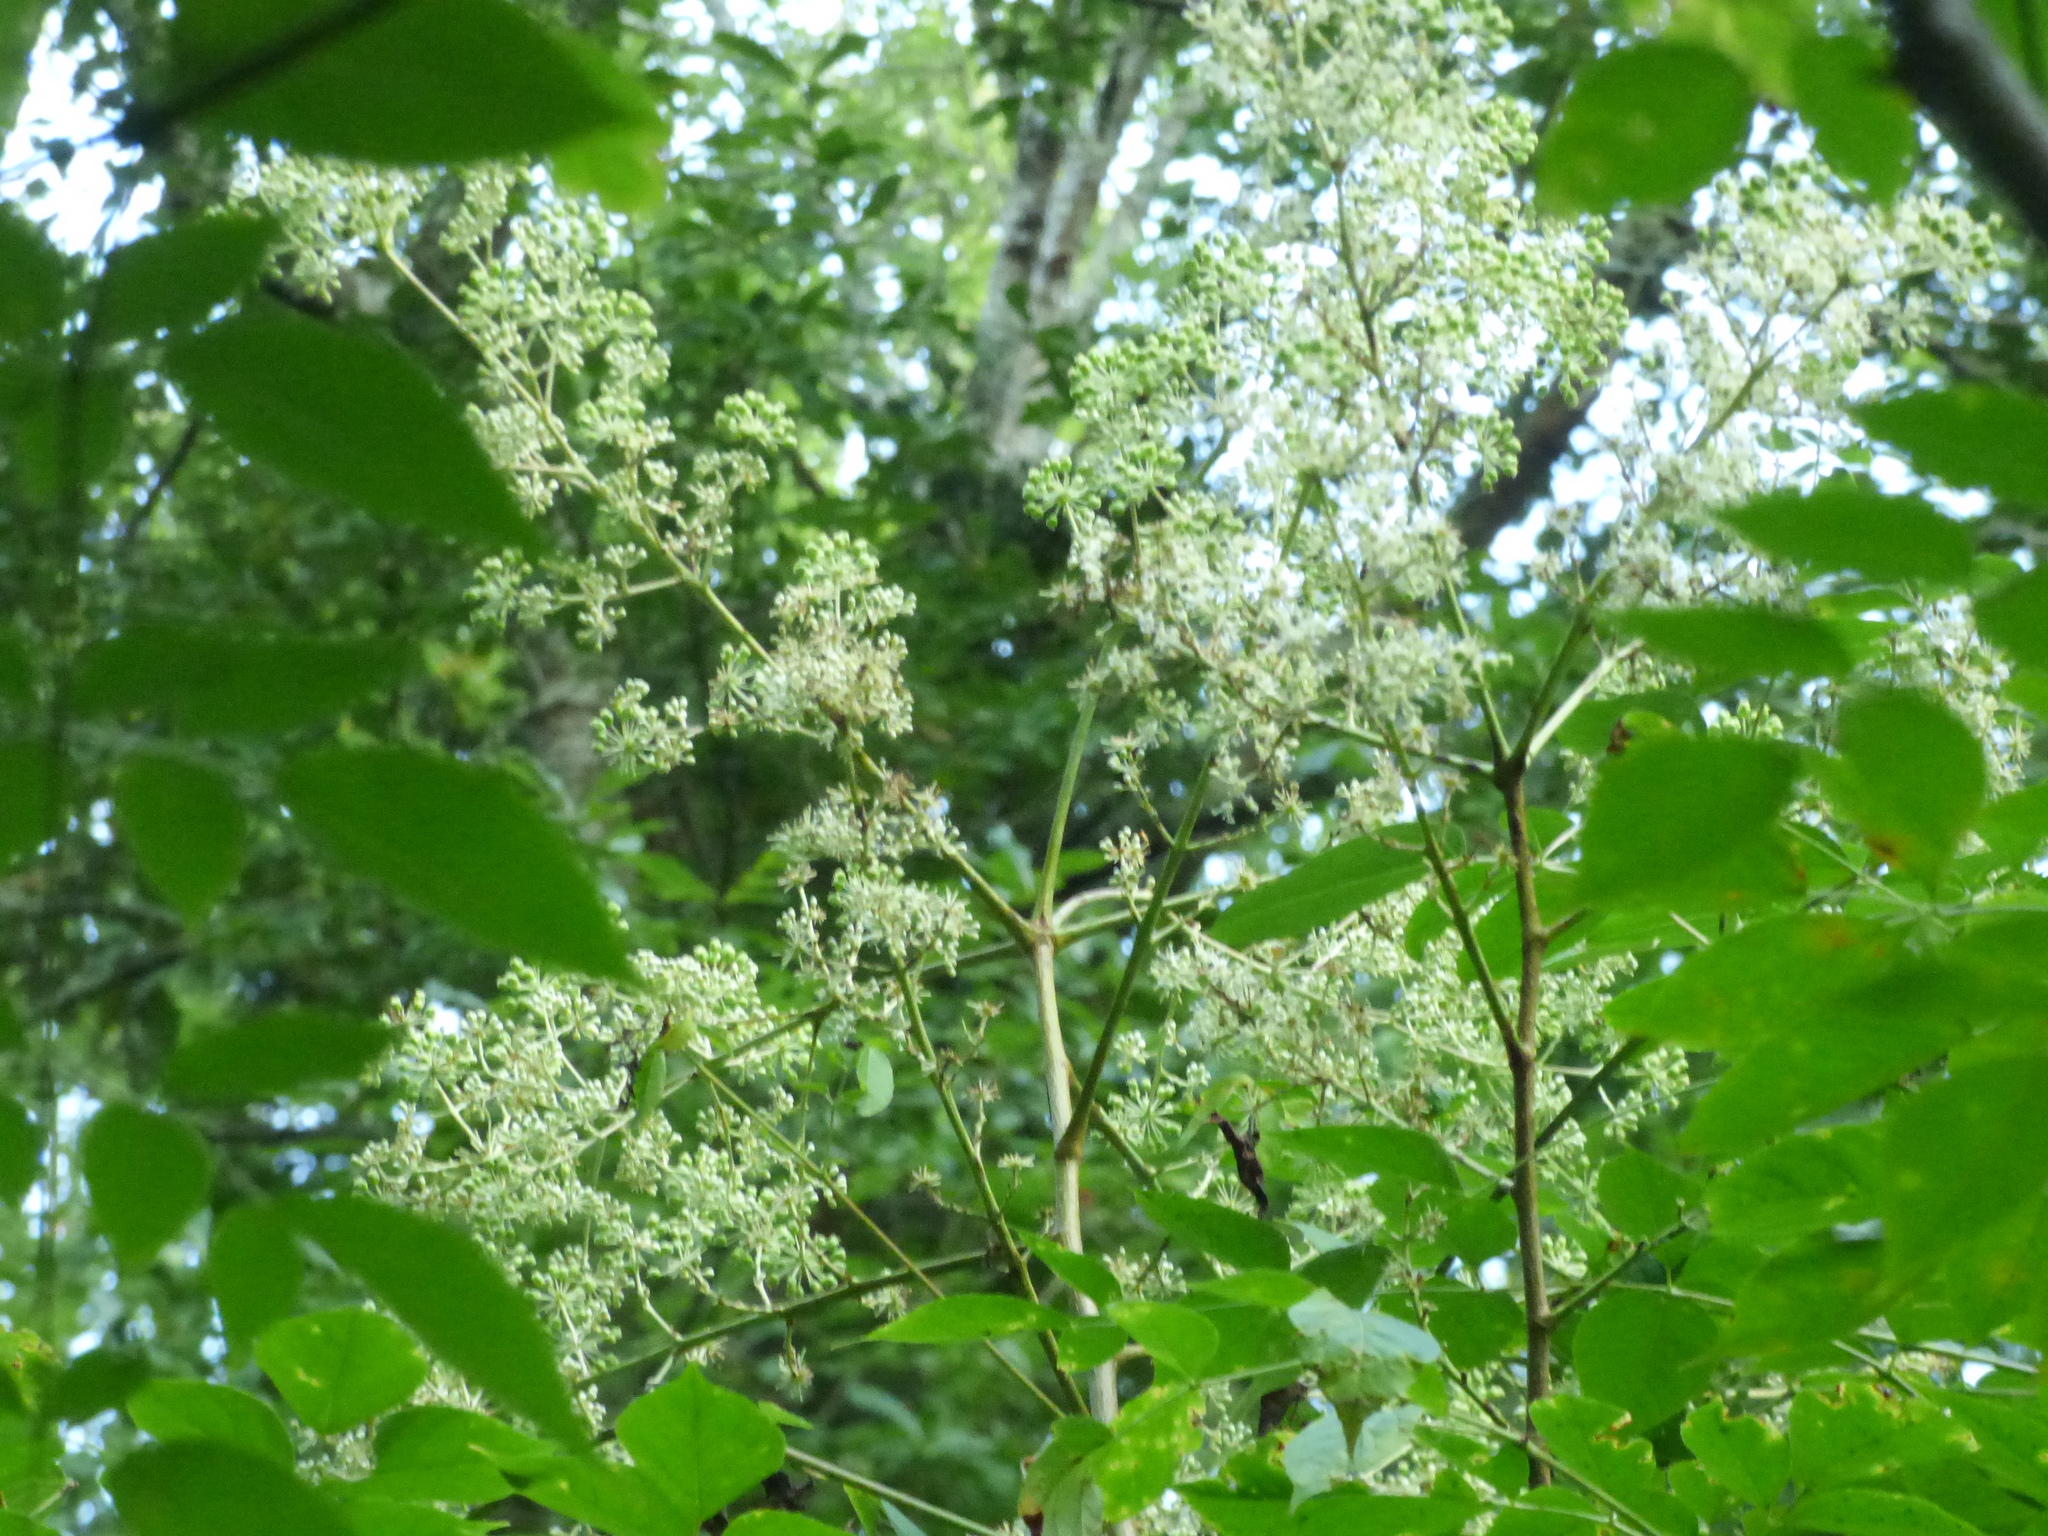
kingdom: Plantae
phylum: Tracheophyta
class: Magnoliopsida
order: Apiales
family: Araliaceae
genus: Aralia
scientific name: Aralia spinosa
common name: Hercules'-club
